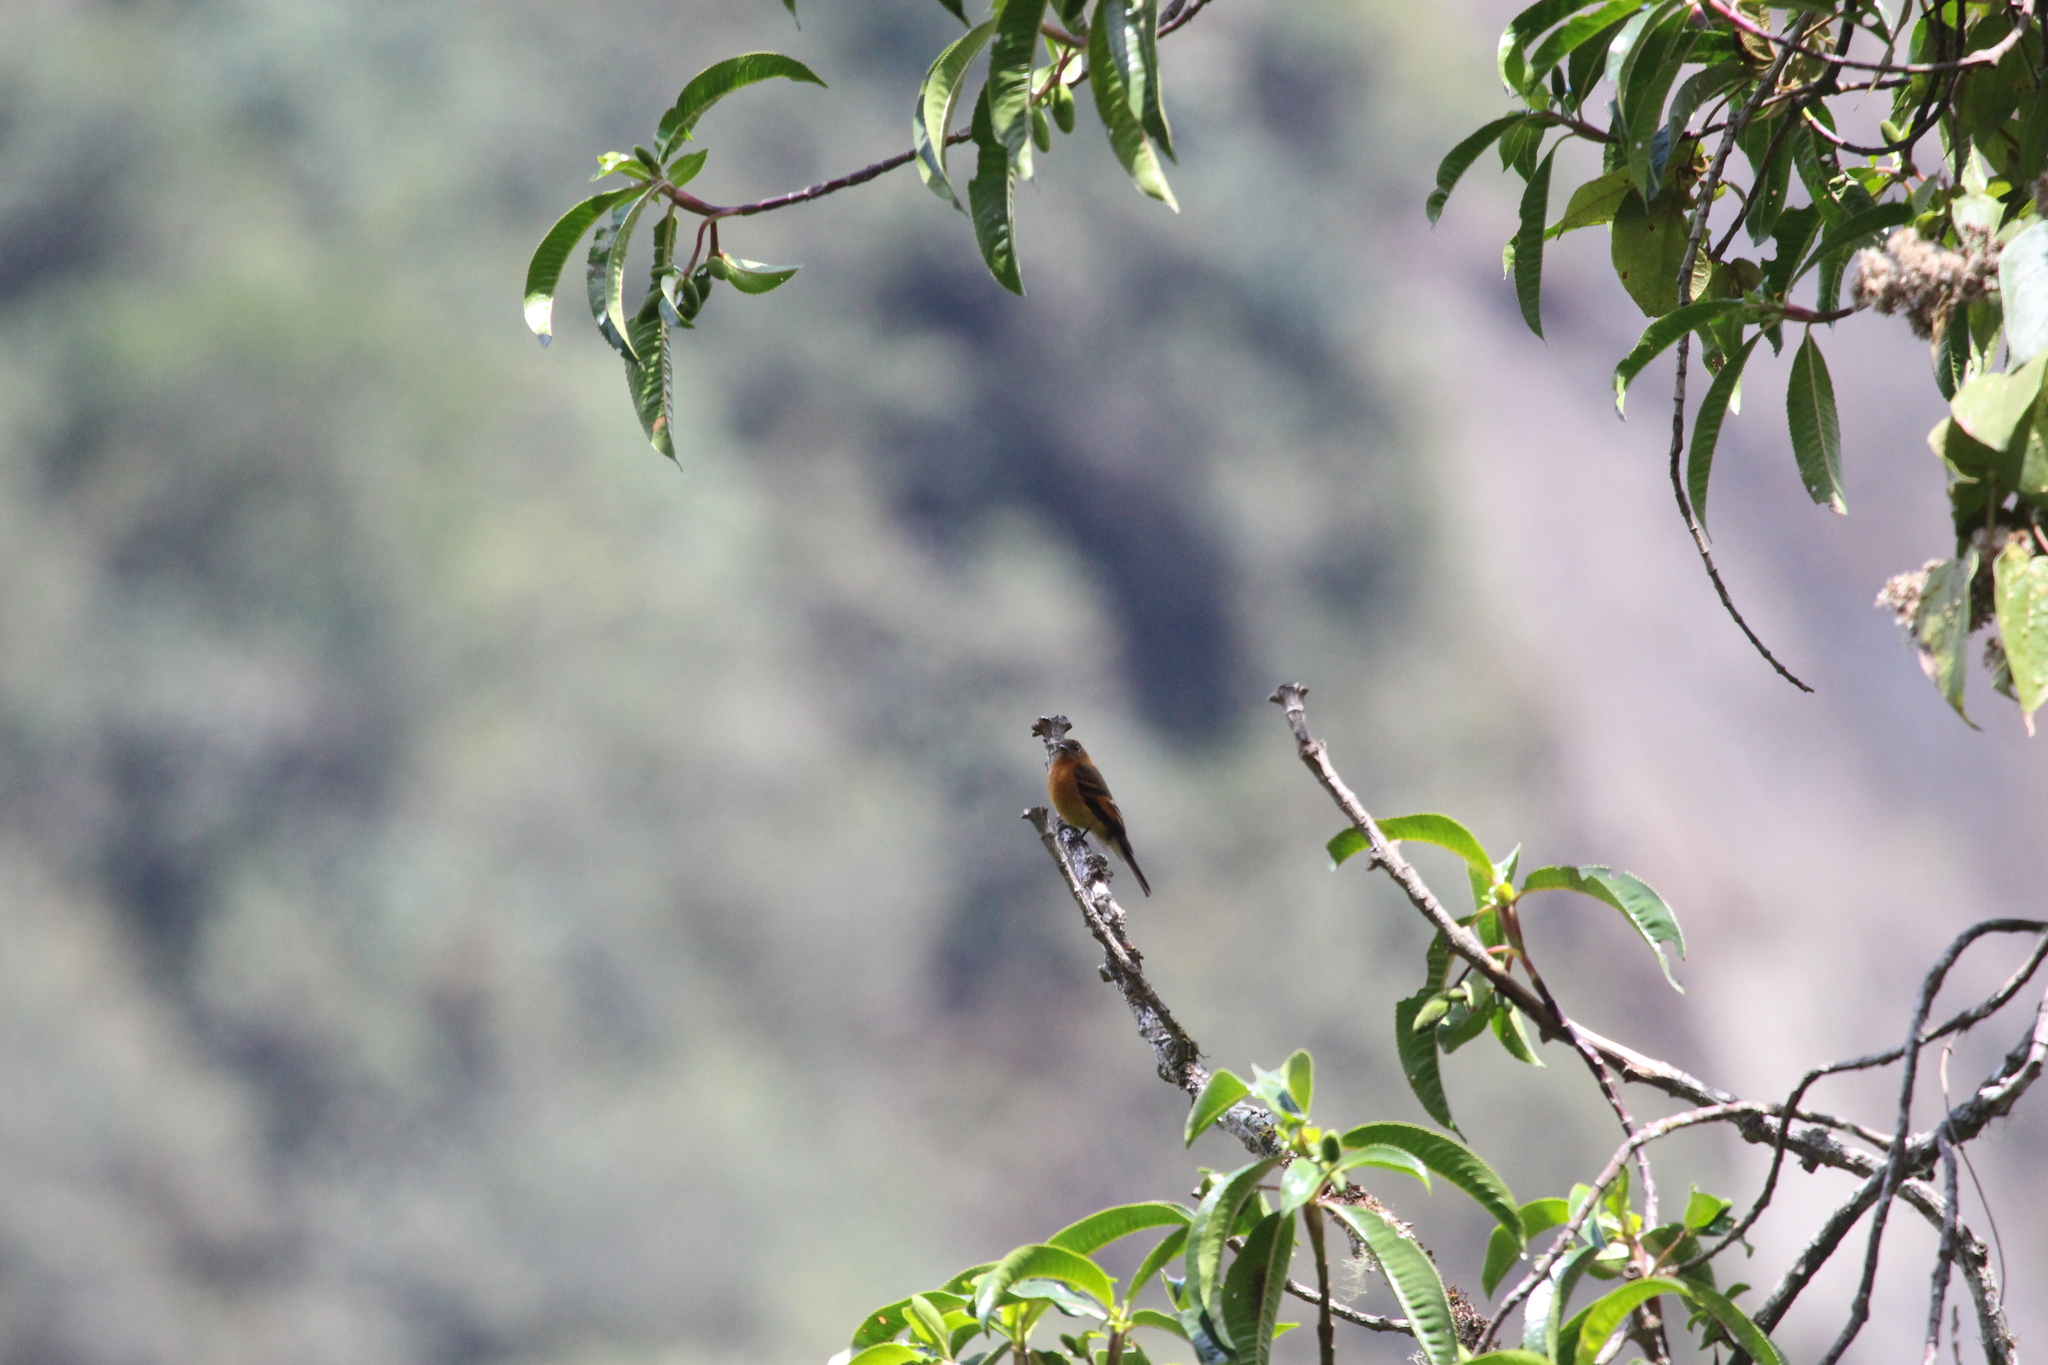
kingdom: Animalia
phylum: Chordata
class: Aves
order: Passeriformes
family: Tyrannidae
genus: Pyrrhomyias
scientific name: Pyrrhomyias cinnamomeus
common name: Cinnamon flycatcher
